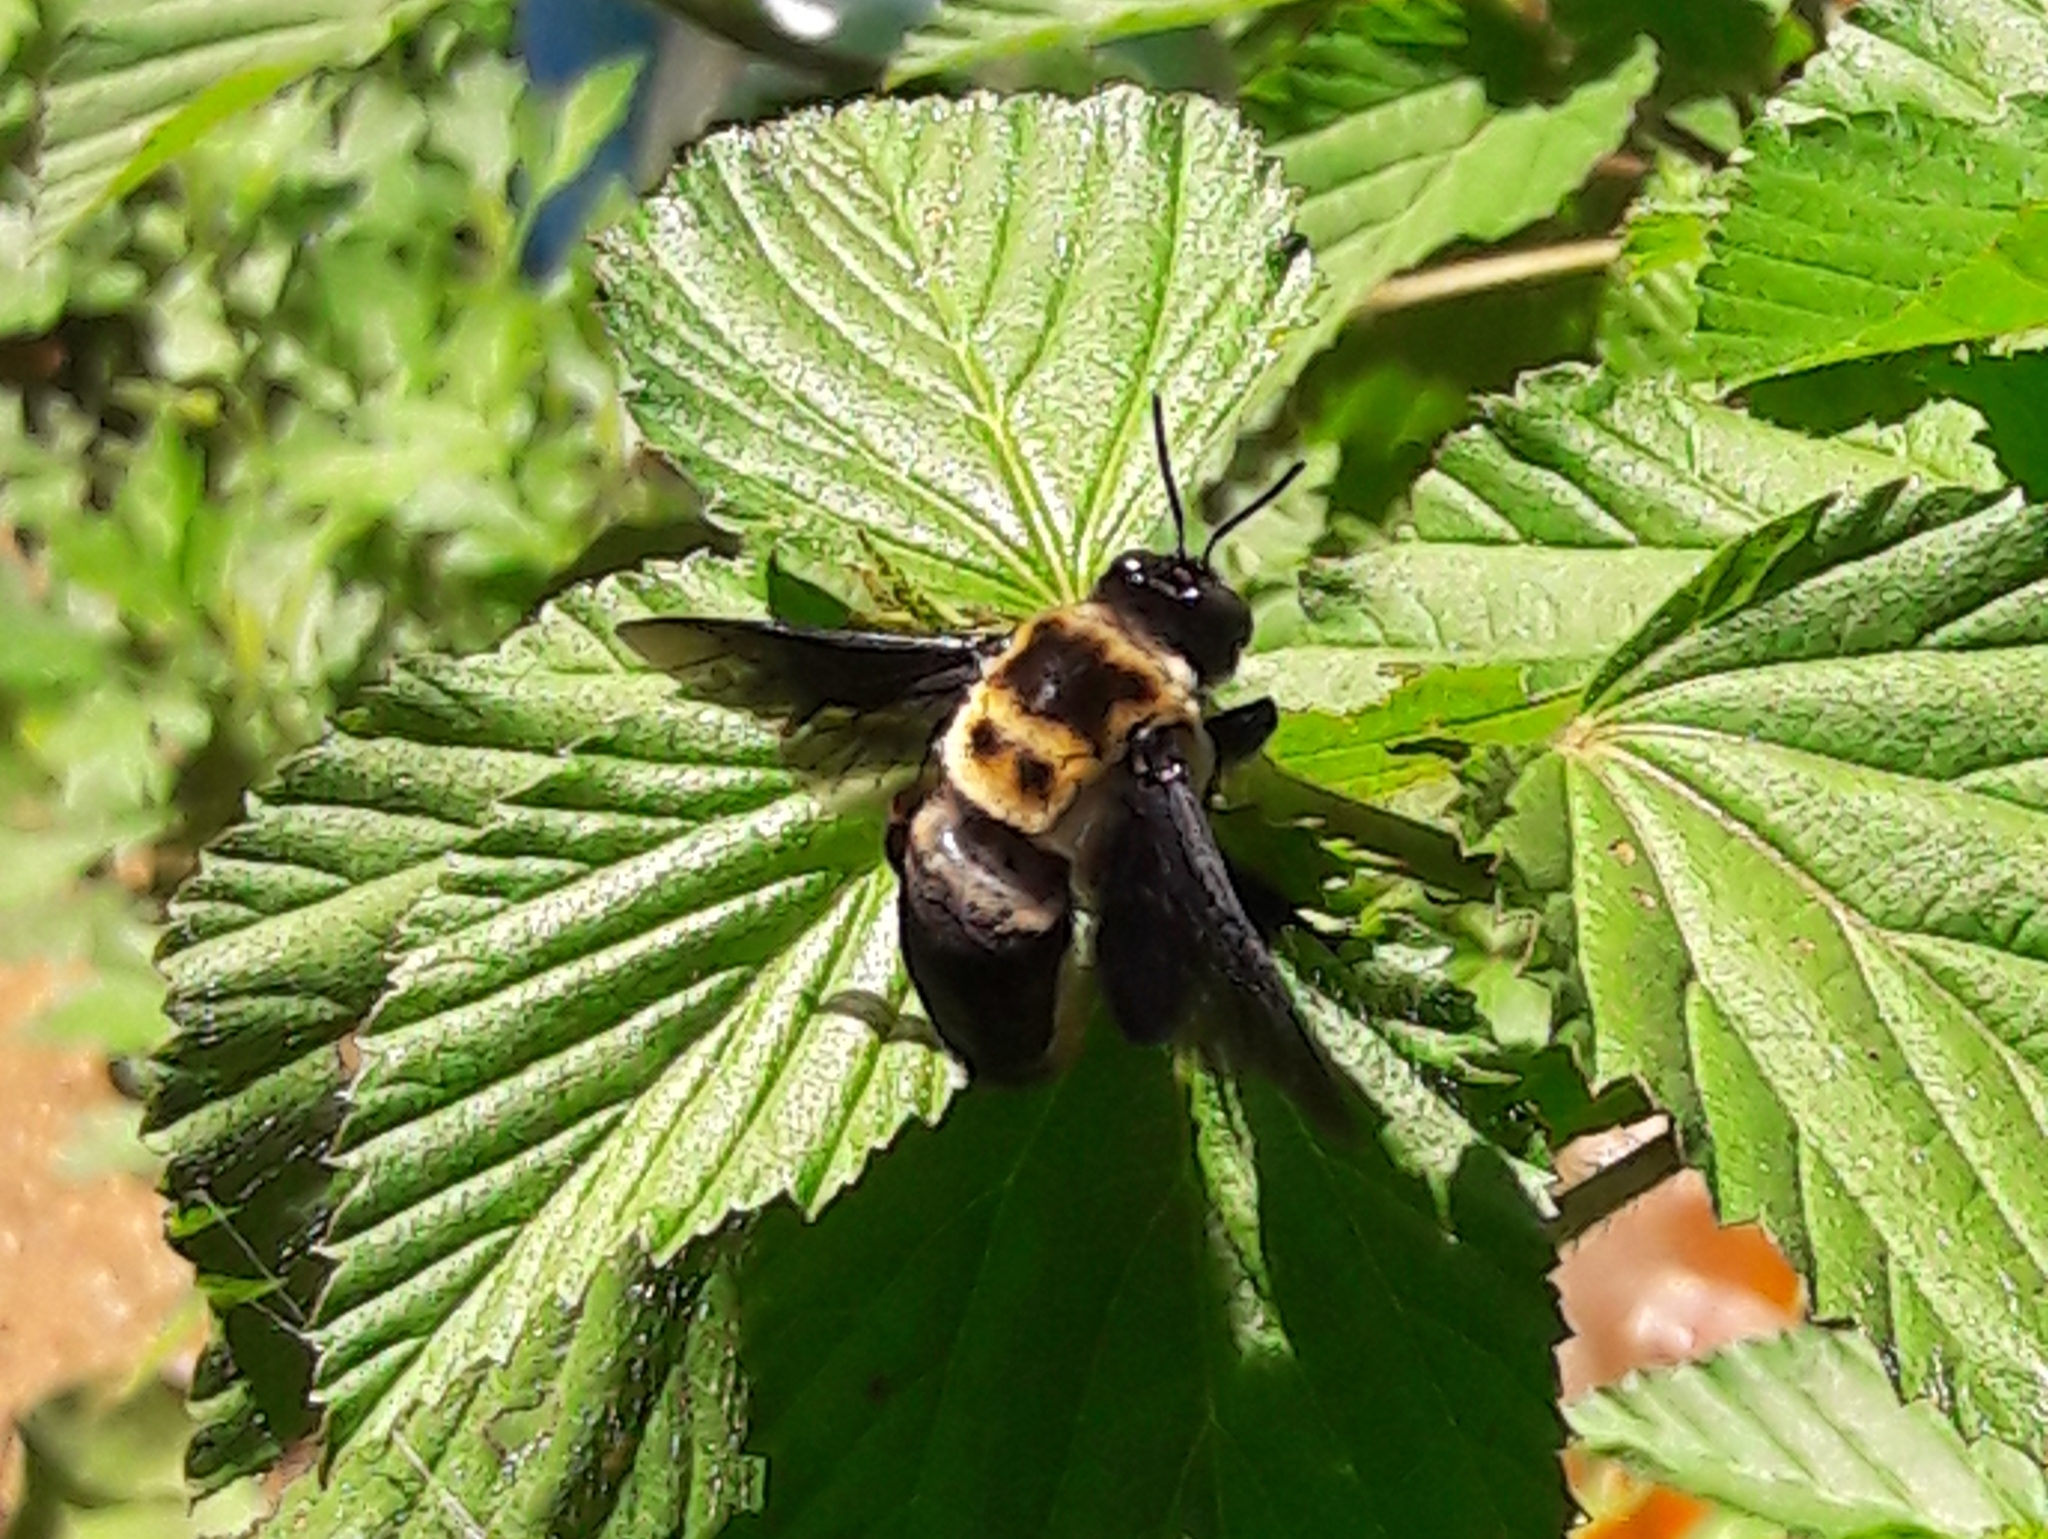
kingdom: Animalia
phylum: Arthropoda
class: Insecta
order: Hymenoptera
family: Apidae
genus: Centris
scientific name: Centris mocsaryi
